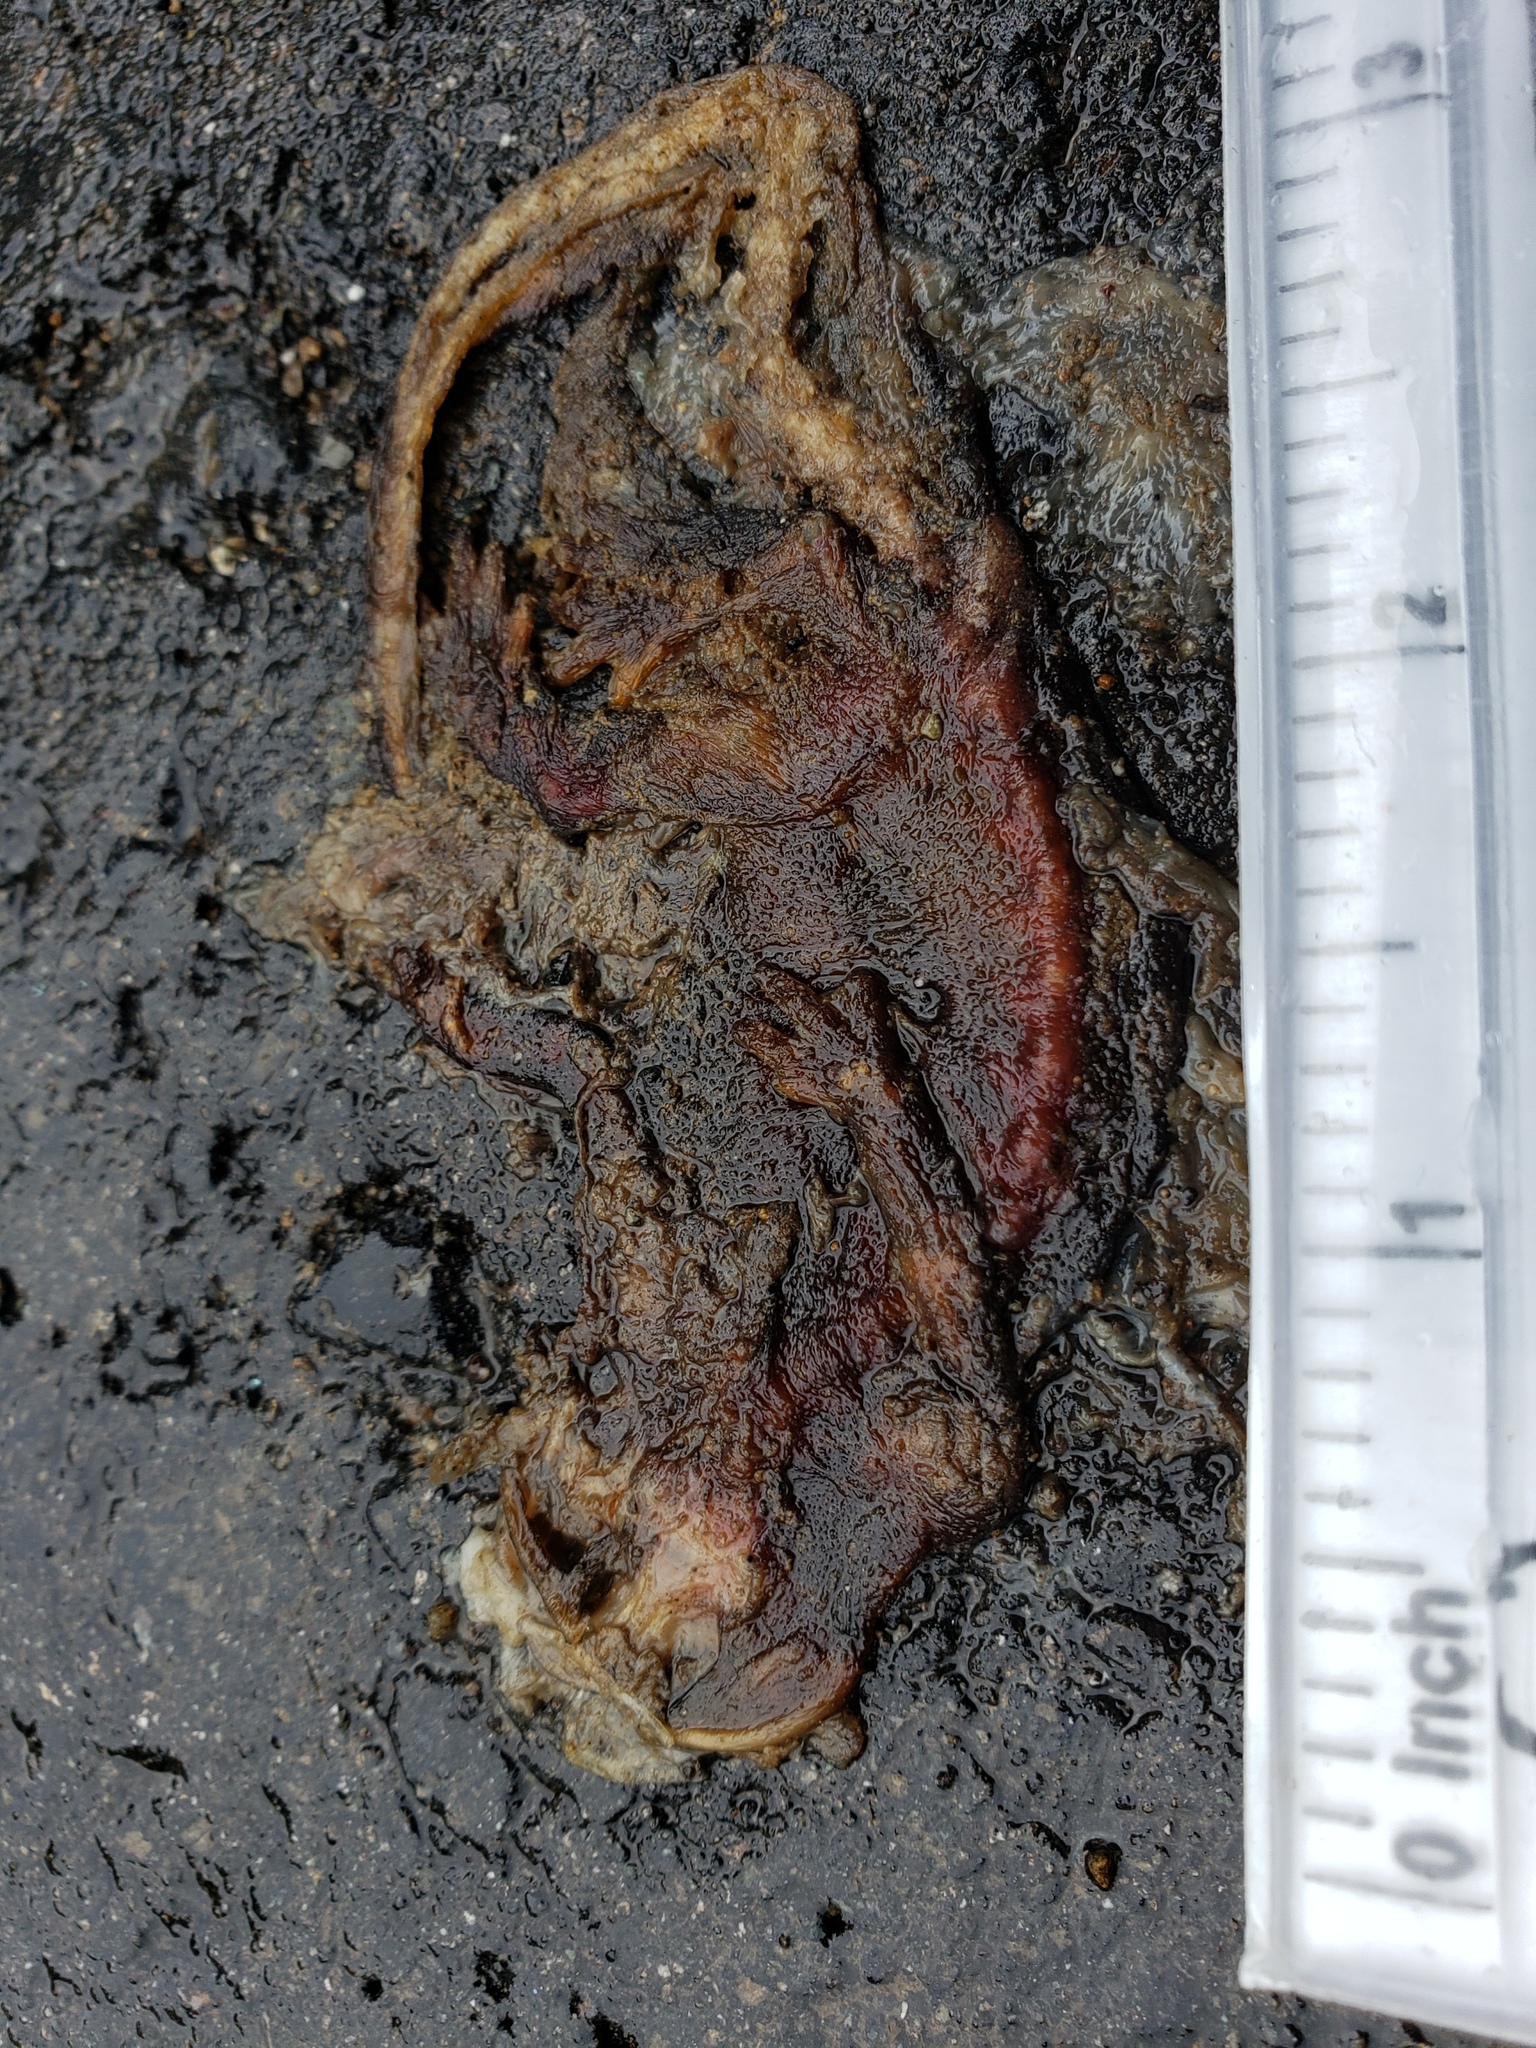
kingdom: Animalia
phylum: Chordata
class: Amphibia
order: Caudata
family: Salamandridae
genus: Taricha
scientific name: Taricha
